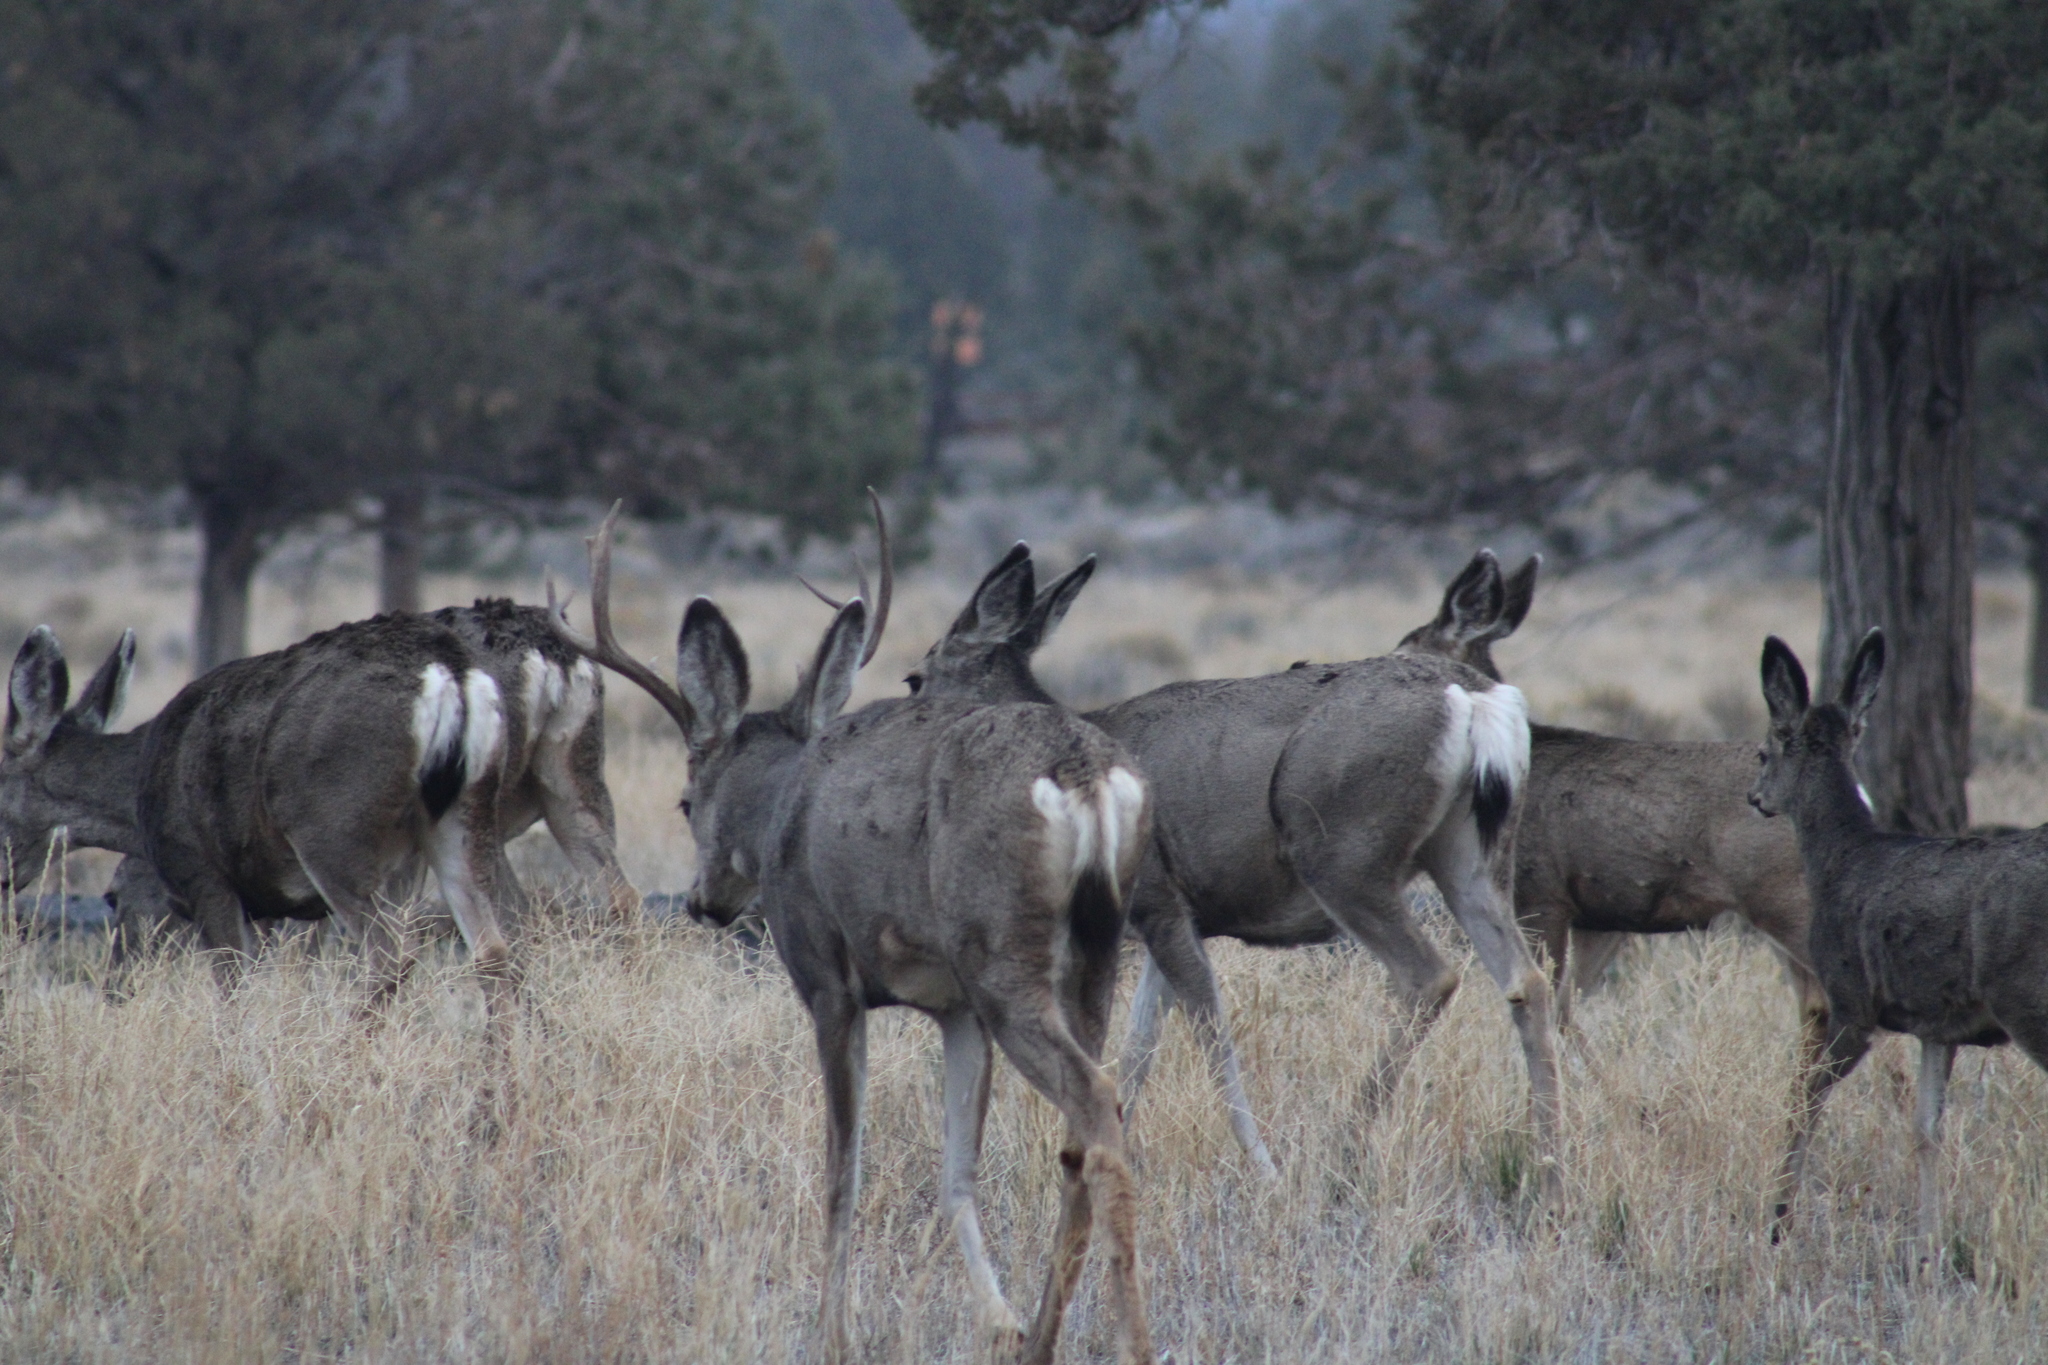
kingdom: Animalia
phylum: Chordata
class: Mammalia
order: Artiodactyla
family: Cervidae
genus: Odocoileus
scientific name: Odocoileus hemionus
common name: Mule deer
